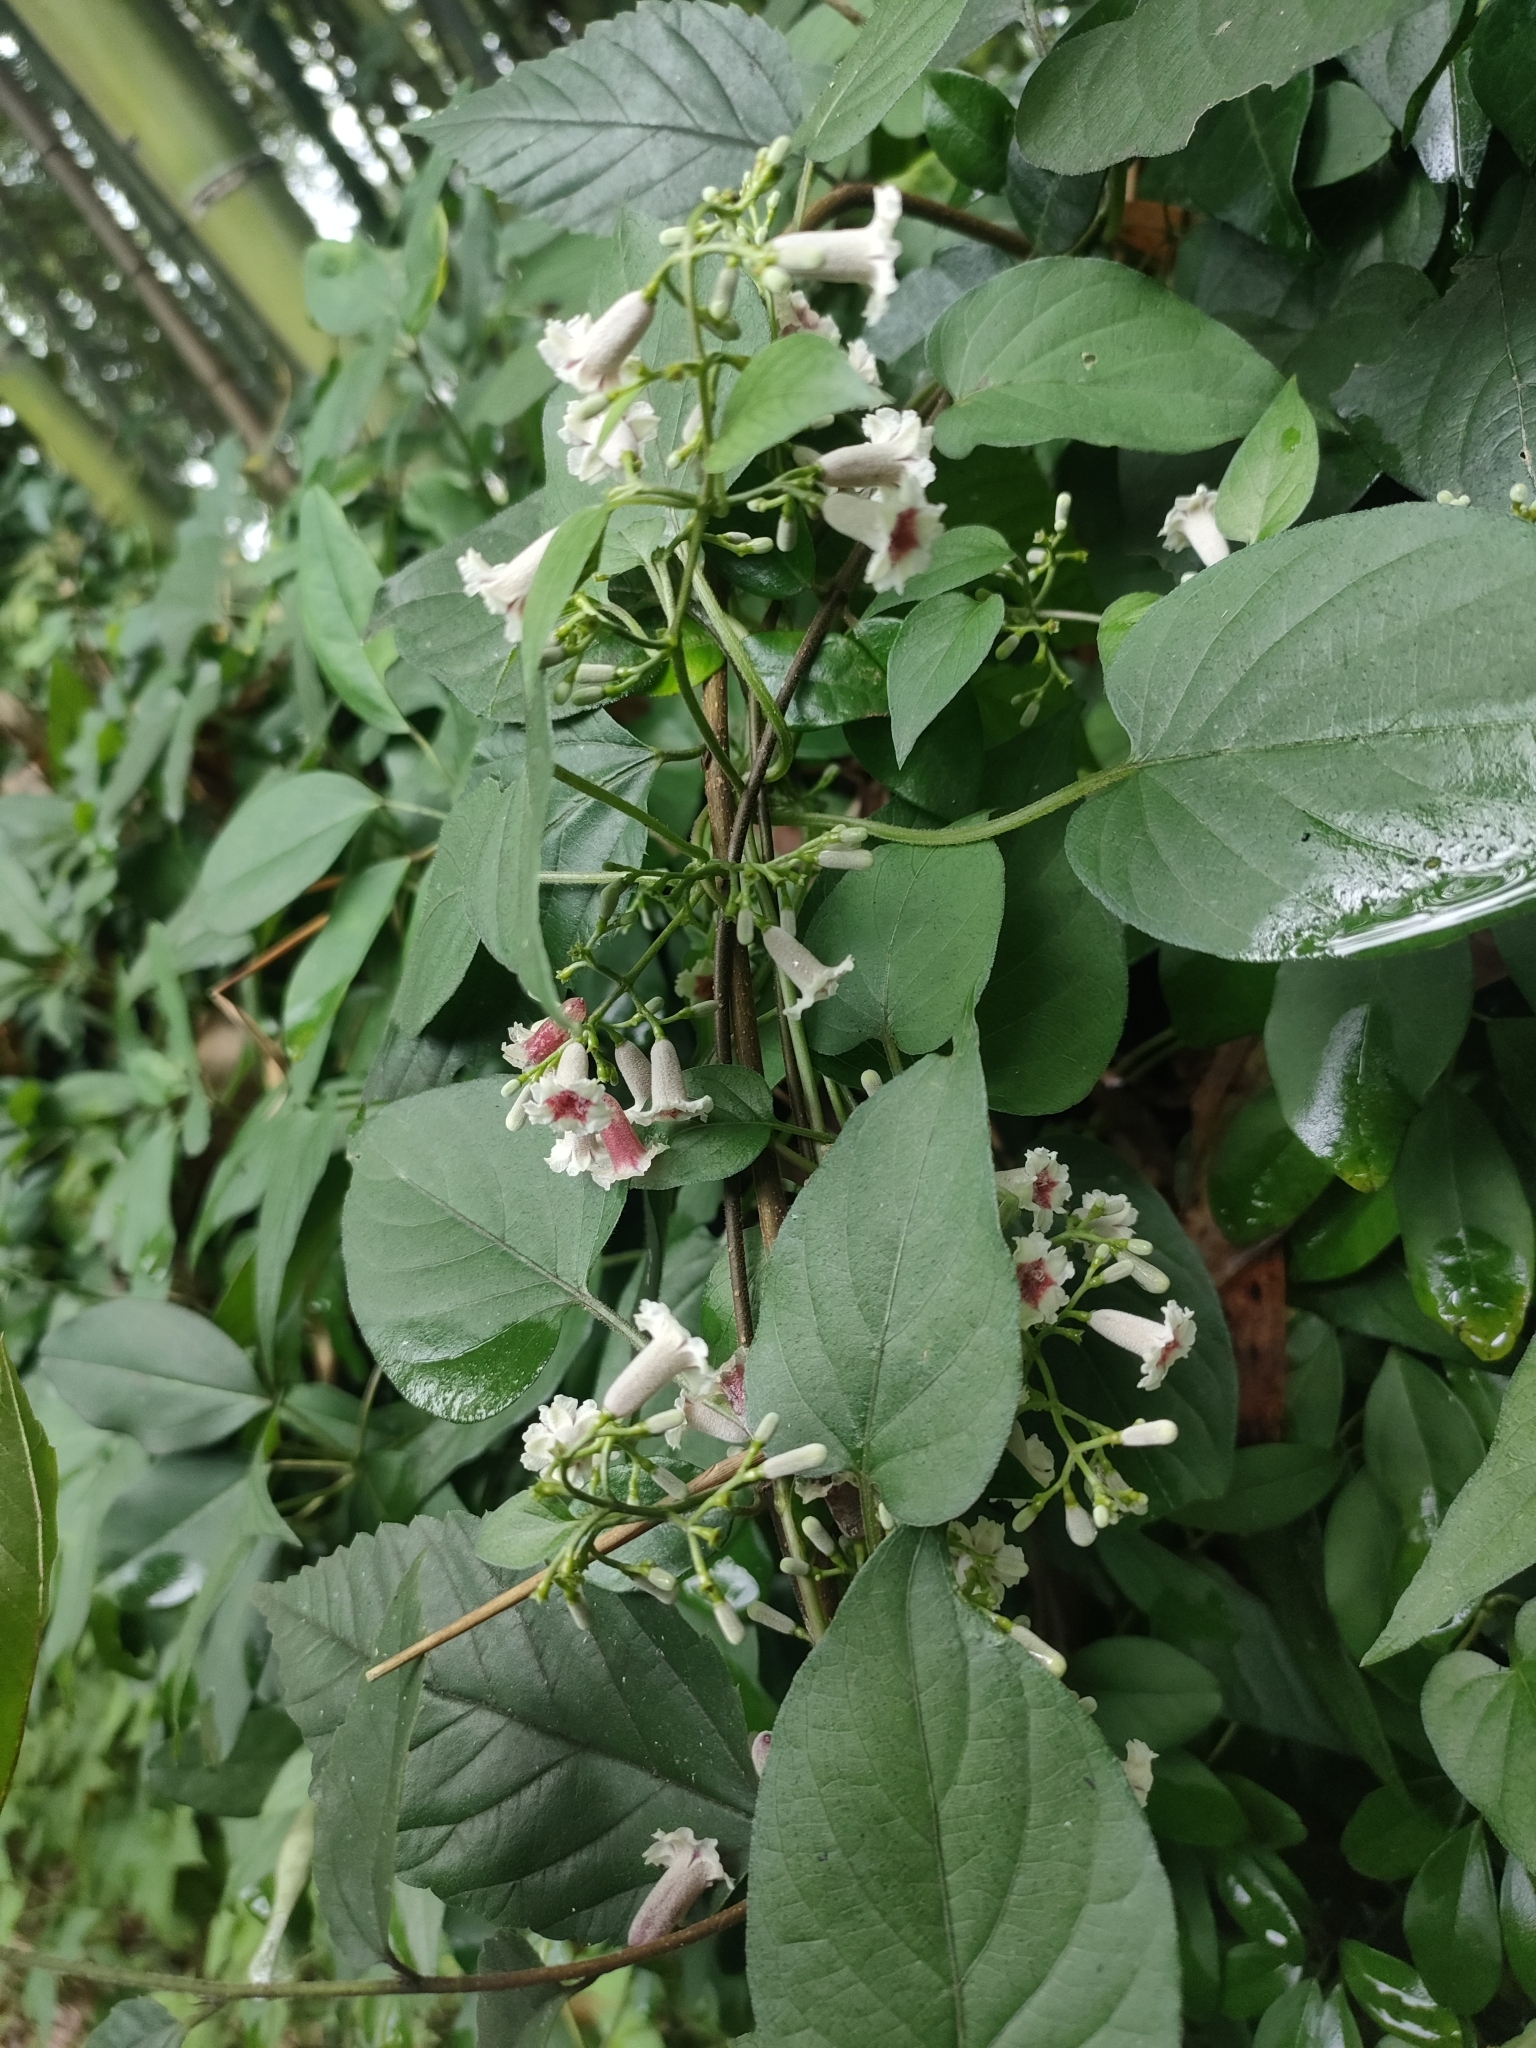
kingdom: Plantae
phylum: Tracheophyta
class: Magnoliopsida
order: Gentianales
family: Rubiaceae
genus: Paederia
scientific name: Paederia foetida
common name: Stinkvine
